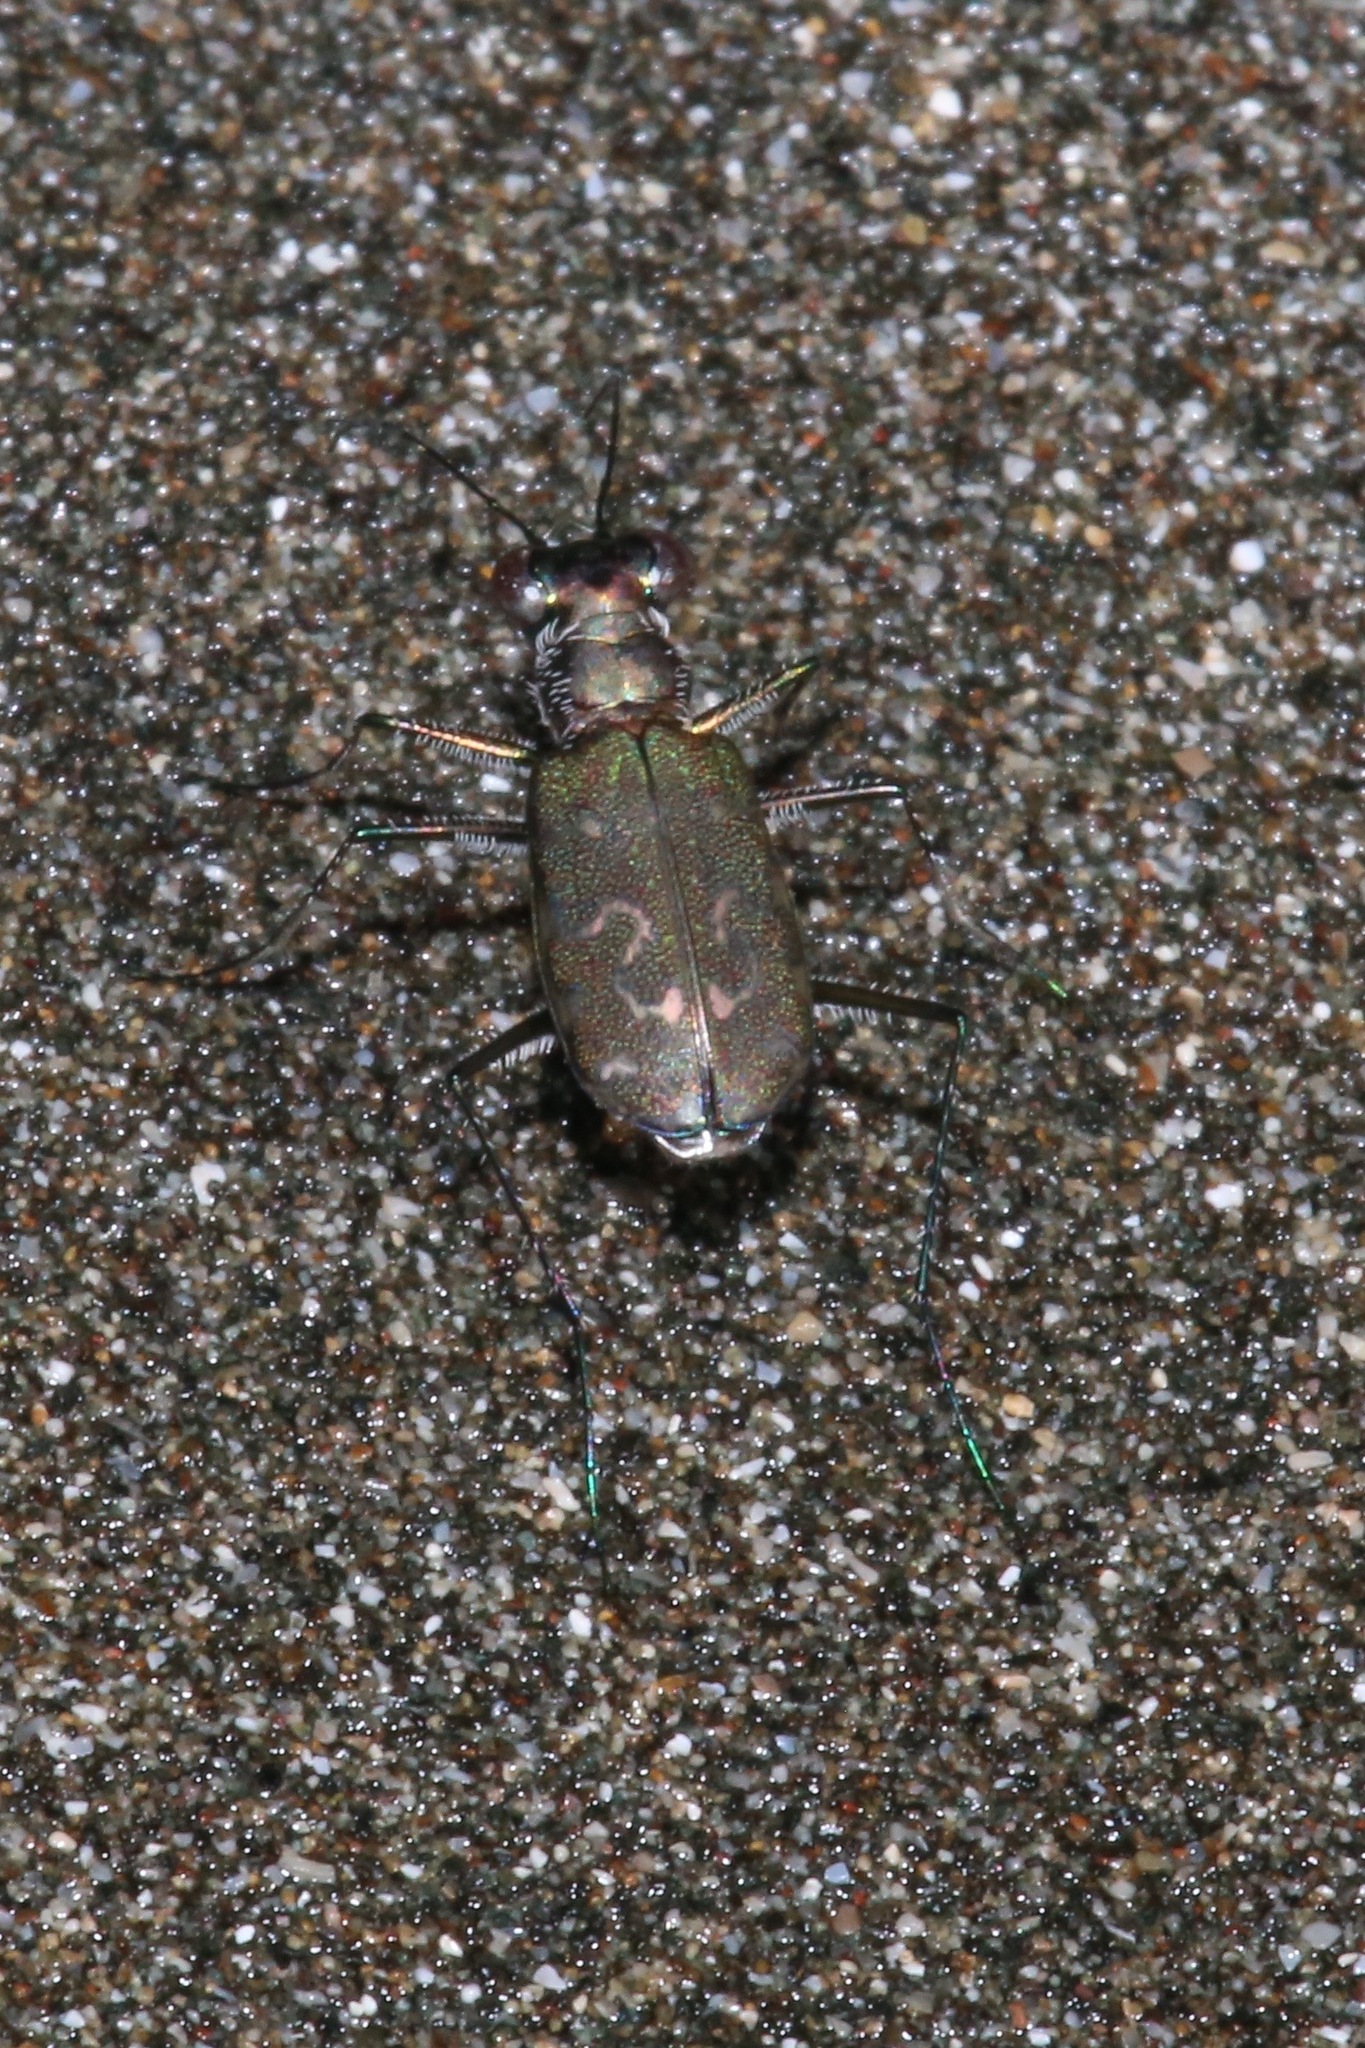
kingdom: Animalia
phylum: Arthropoda
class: Insecta
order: Coleoptera
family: Carabidae
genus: Cicindela
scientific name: Cicindela trifasciata
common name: Mudflat tiger beetle
